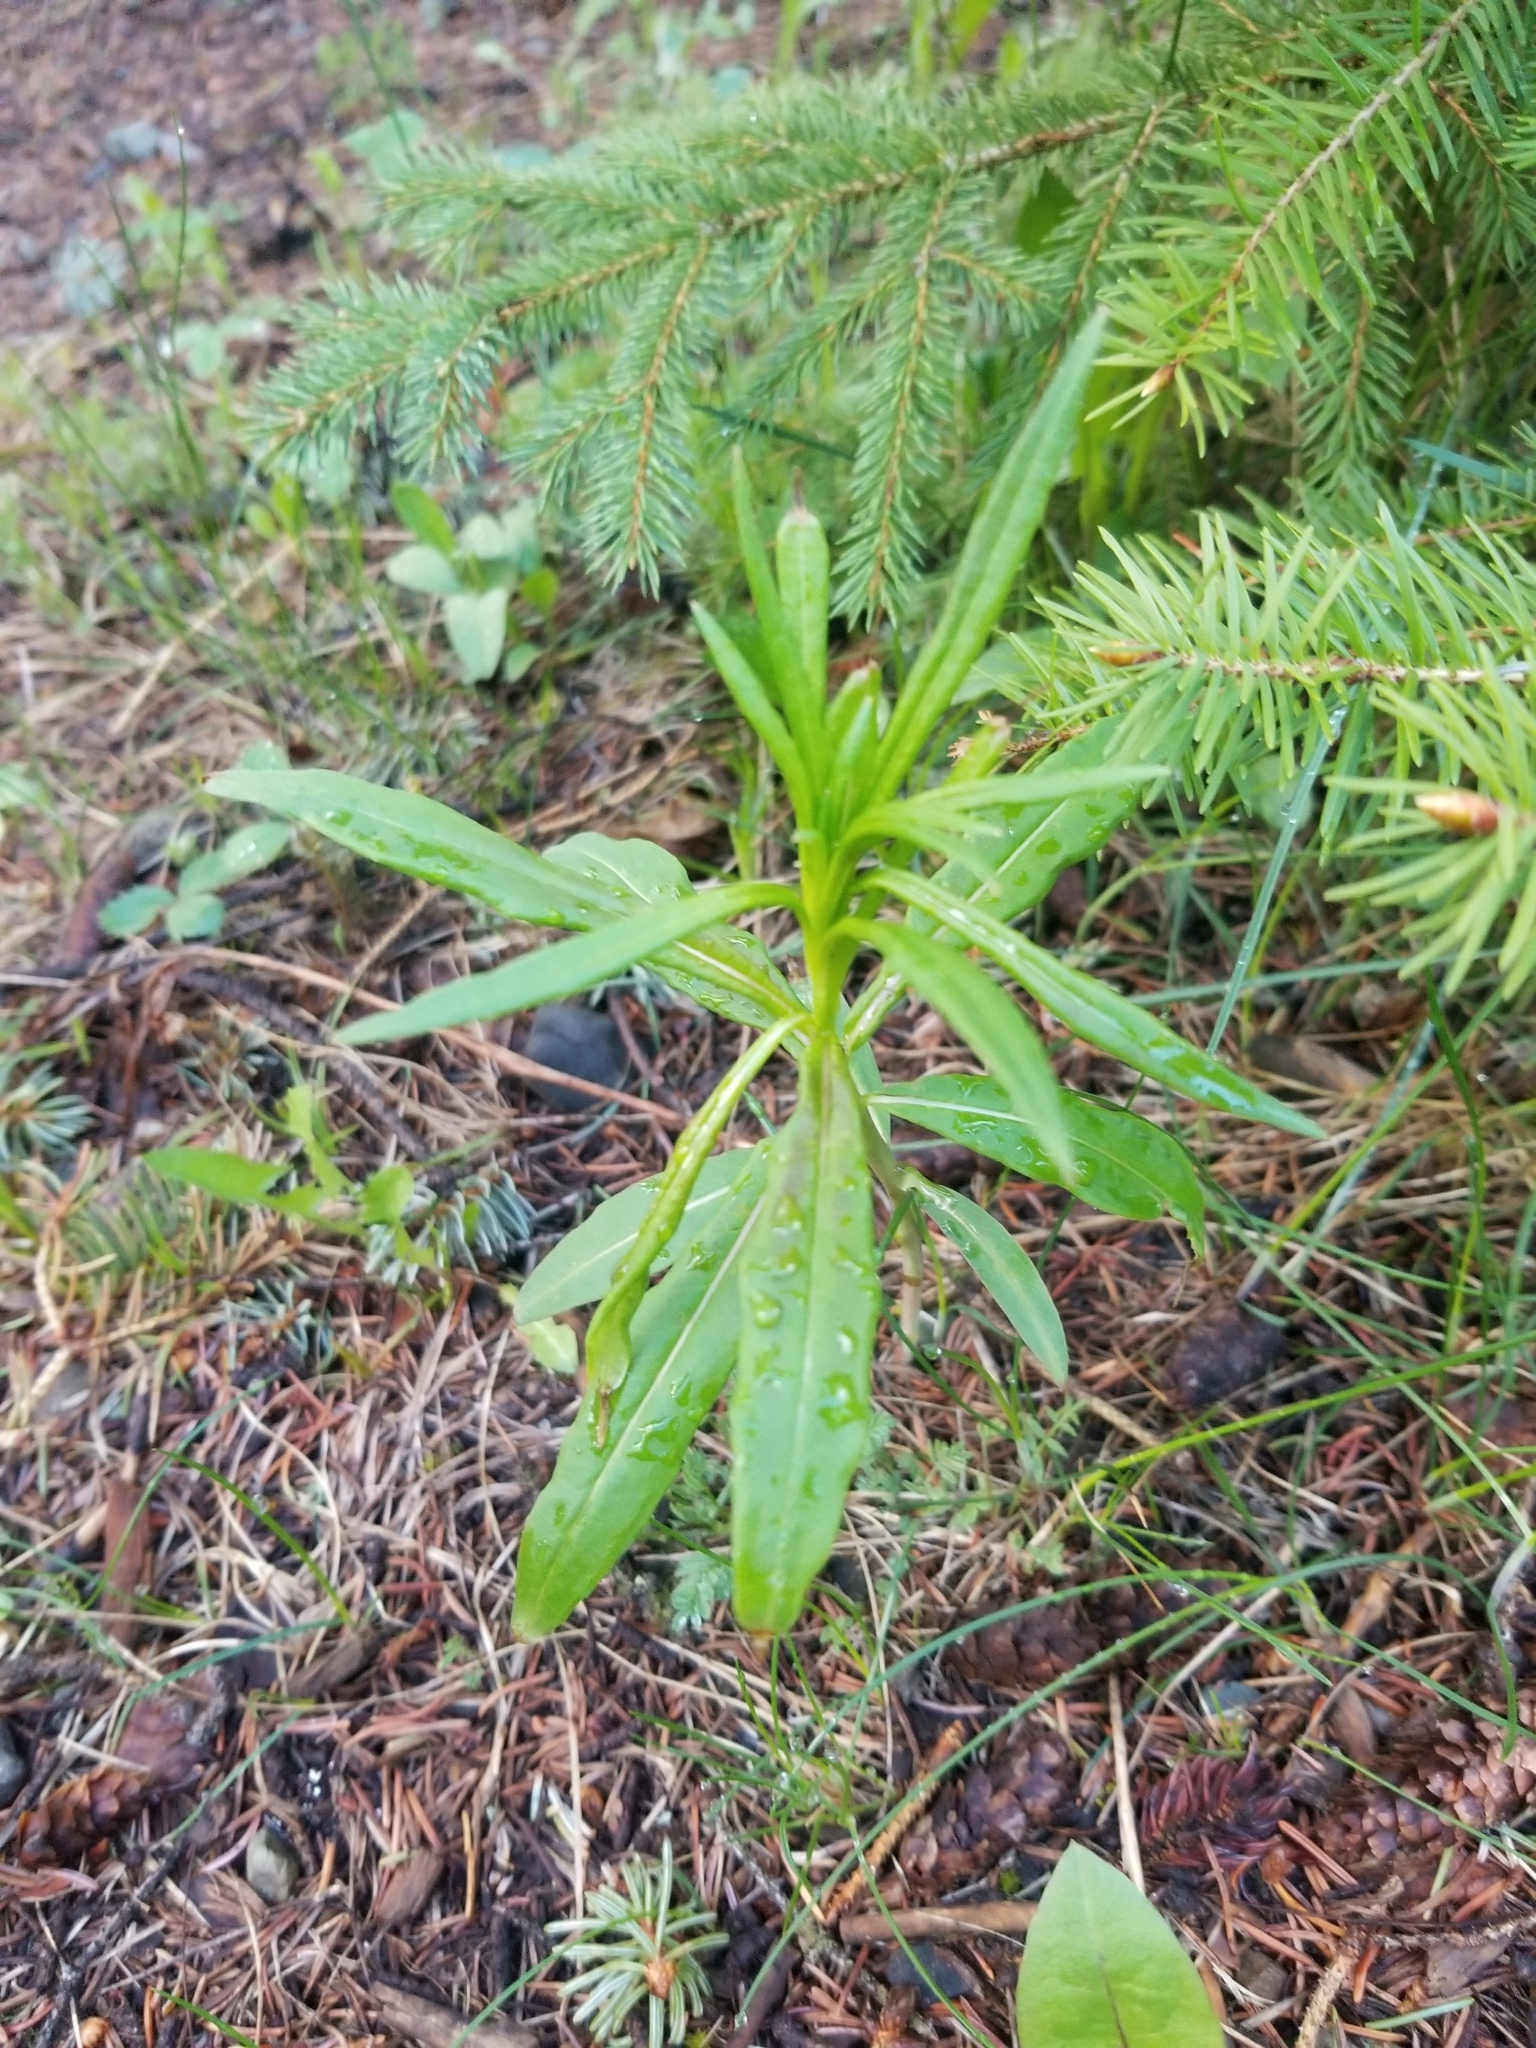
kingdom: Plantae
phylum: Tracheophyta
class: Magnoliopsida
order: Myrtales
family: Onagraceae
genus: Chamaenerion
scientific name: Chamaenerion angustifolium
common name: Fireweed
